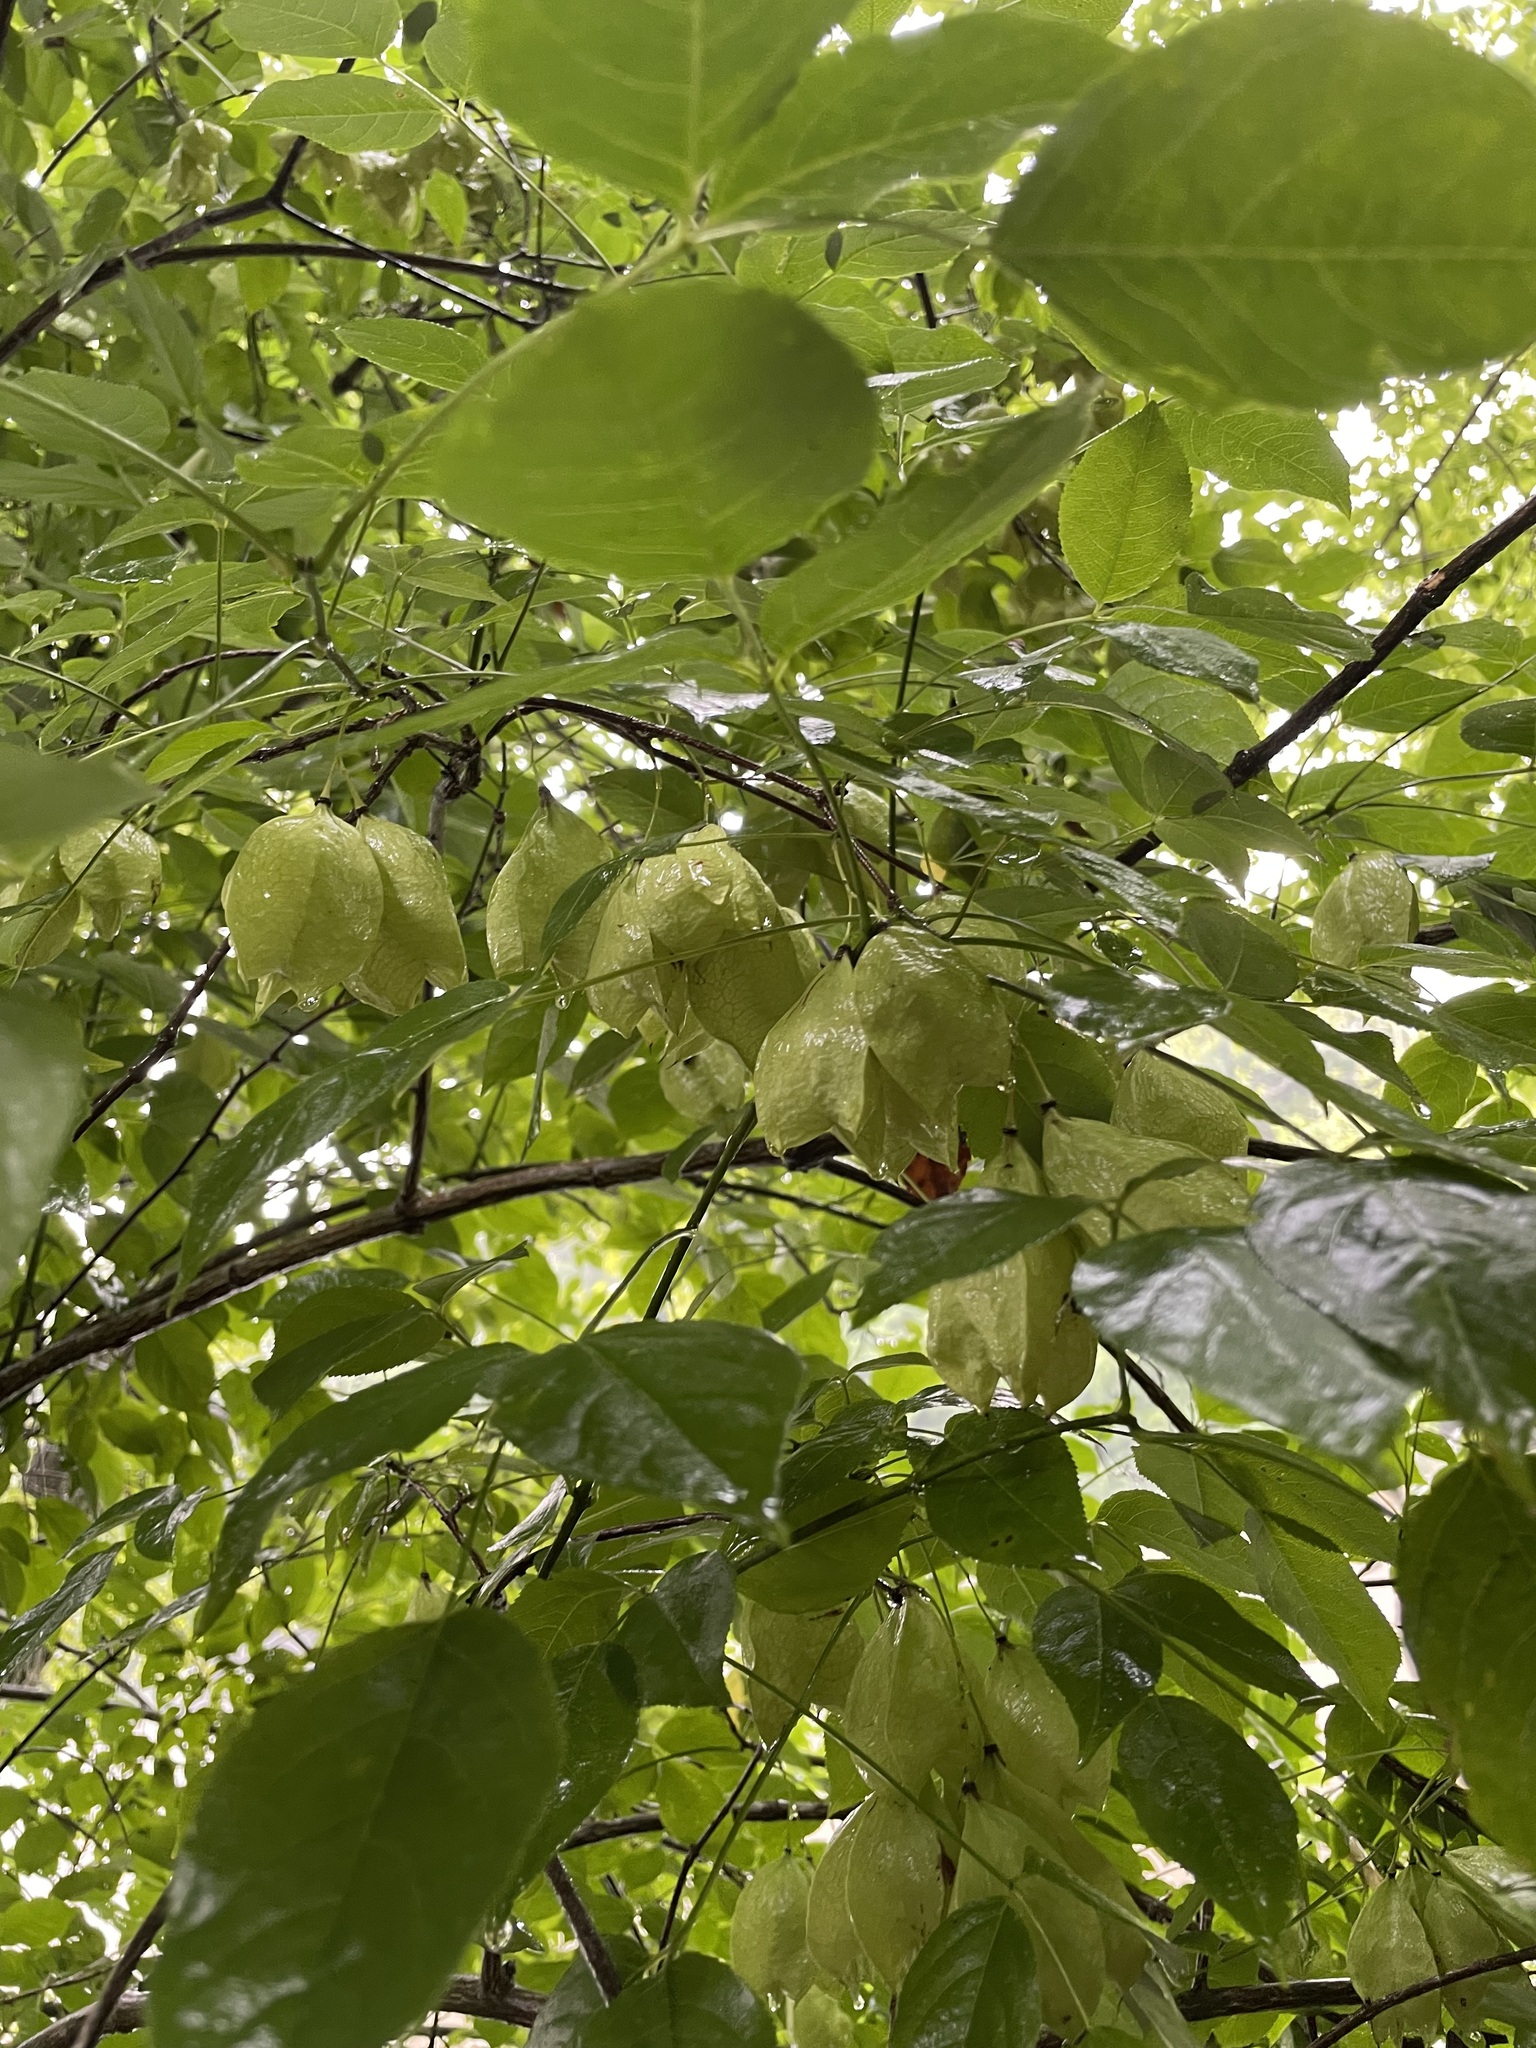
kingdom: Plantae
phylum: Tracheophyta
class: Magnoliopsida
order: Crossosomatales
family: Staphyleaceae
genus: Staphylea
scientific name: Staphylea trifolia
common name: American bladdernut
